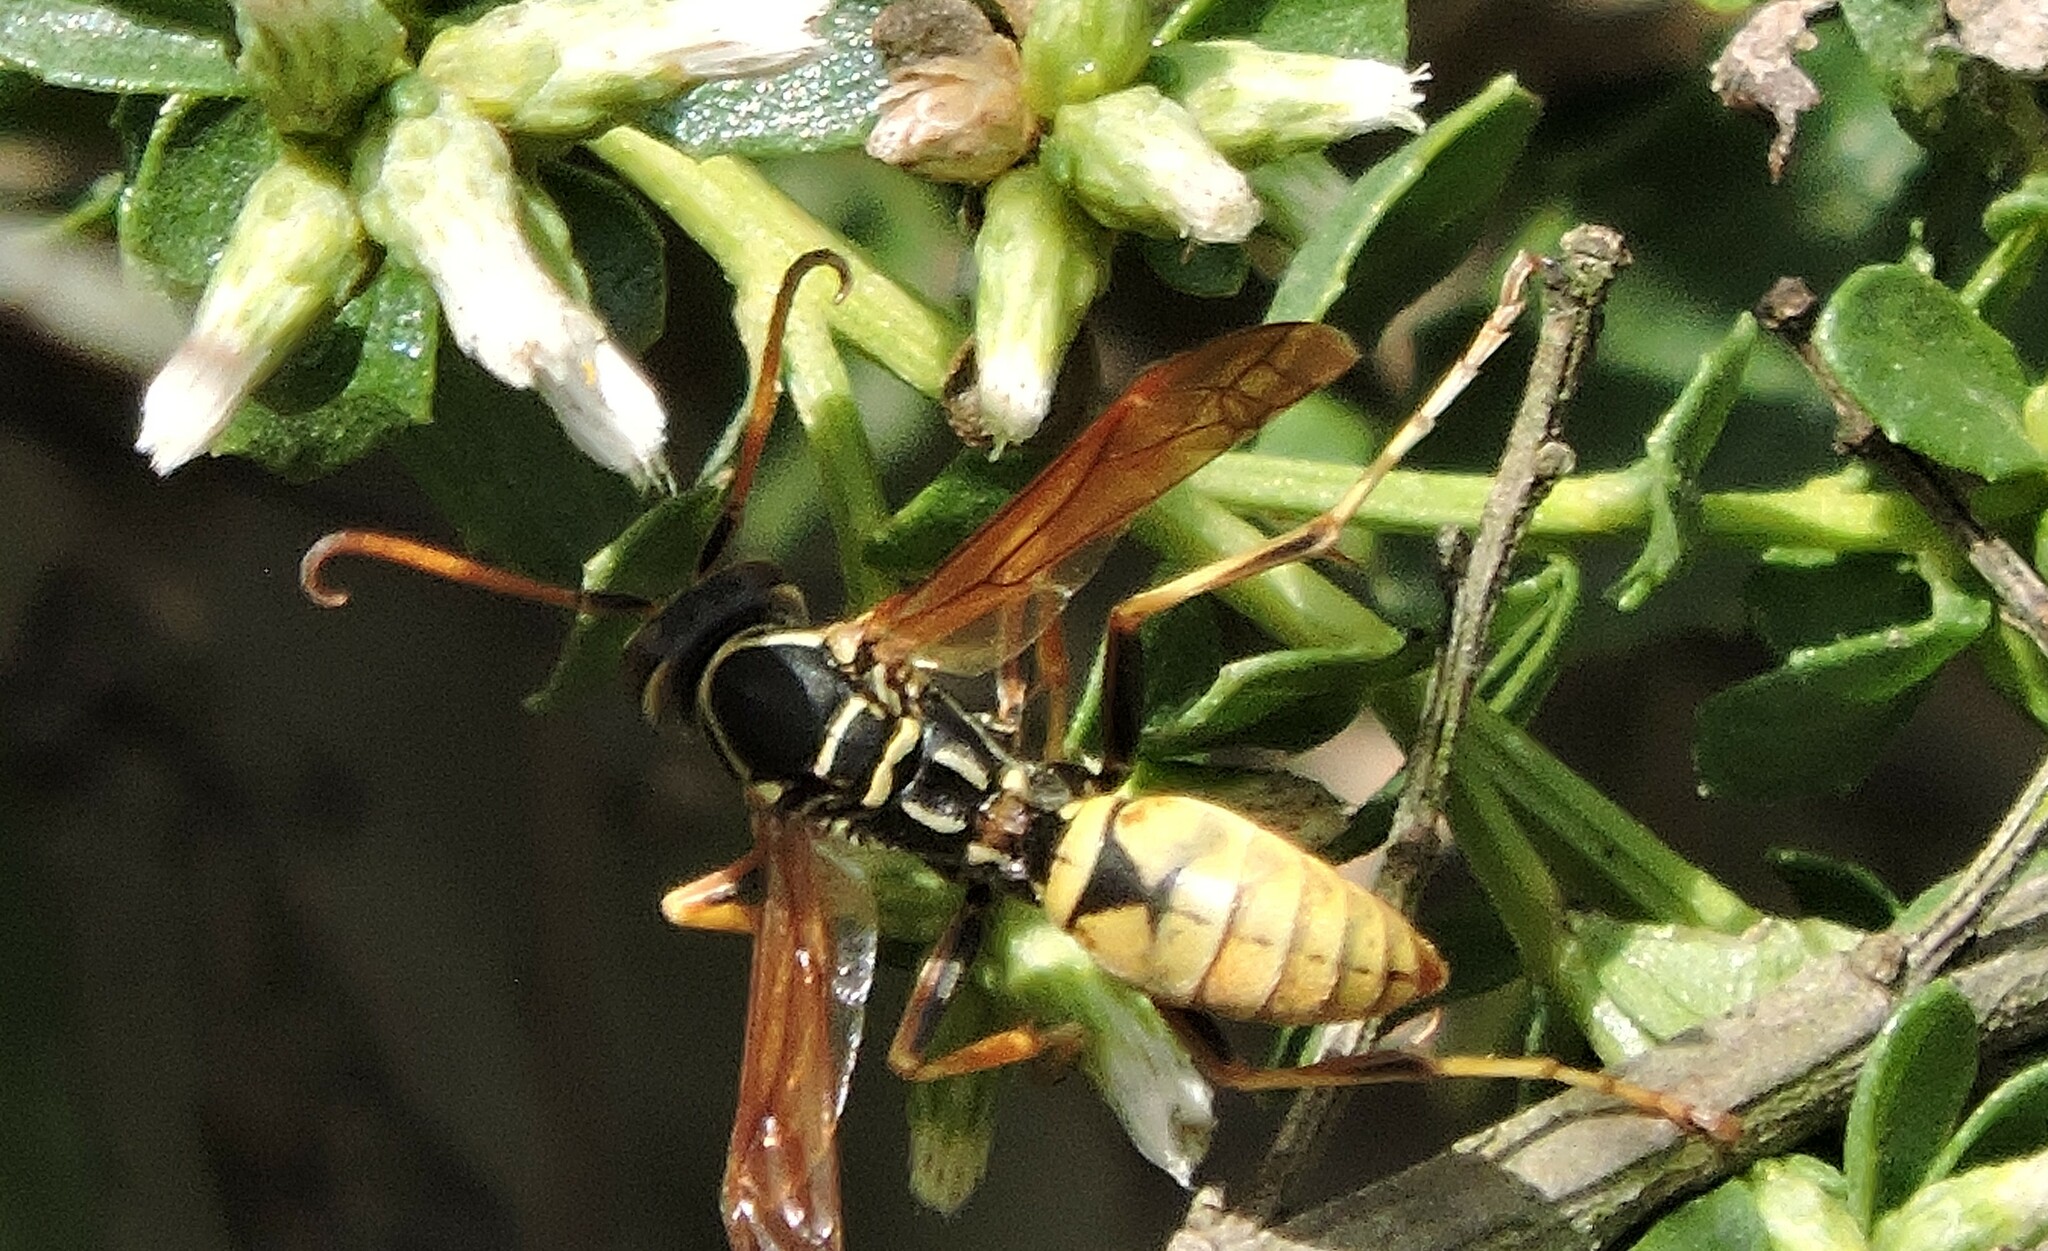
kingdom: Animalia
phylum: Arthropoda
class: Insecta
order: Hymenoptera
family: Eumenidae
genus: Polistes
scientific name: Polistes aurifer
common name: Paper wasp
